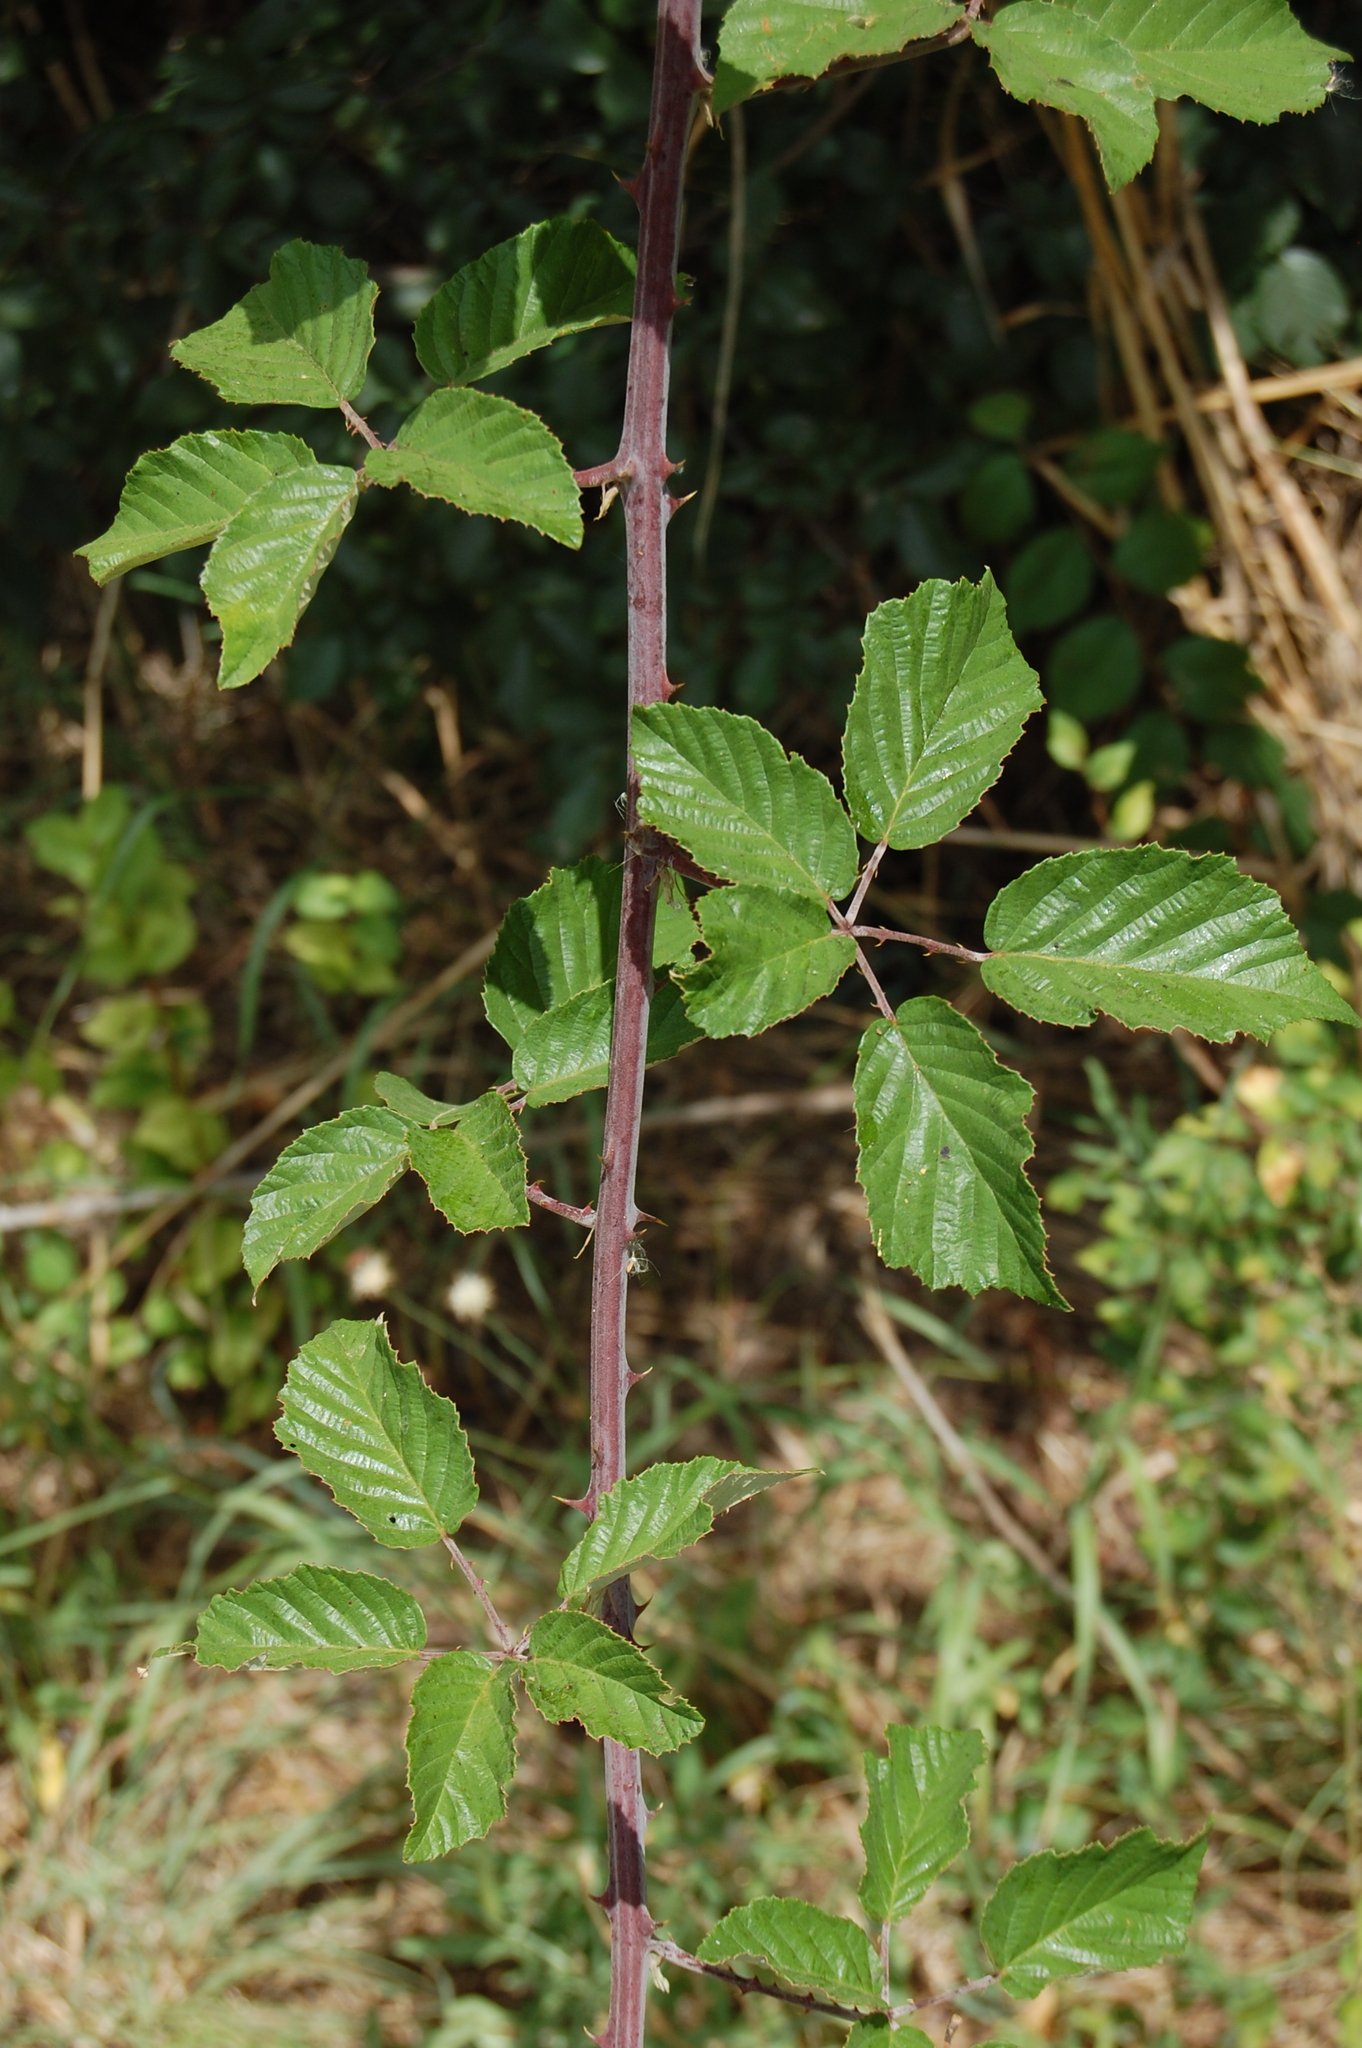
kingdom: Plantae
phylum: Tracheophyta
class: Magnoliopsida
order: Rosales
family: Rosaceae
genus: Rubus
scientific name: Rubus ulmifolius
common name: Elmleaf blackberry
